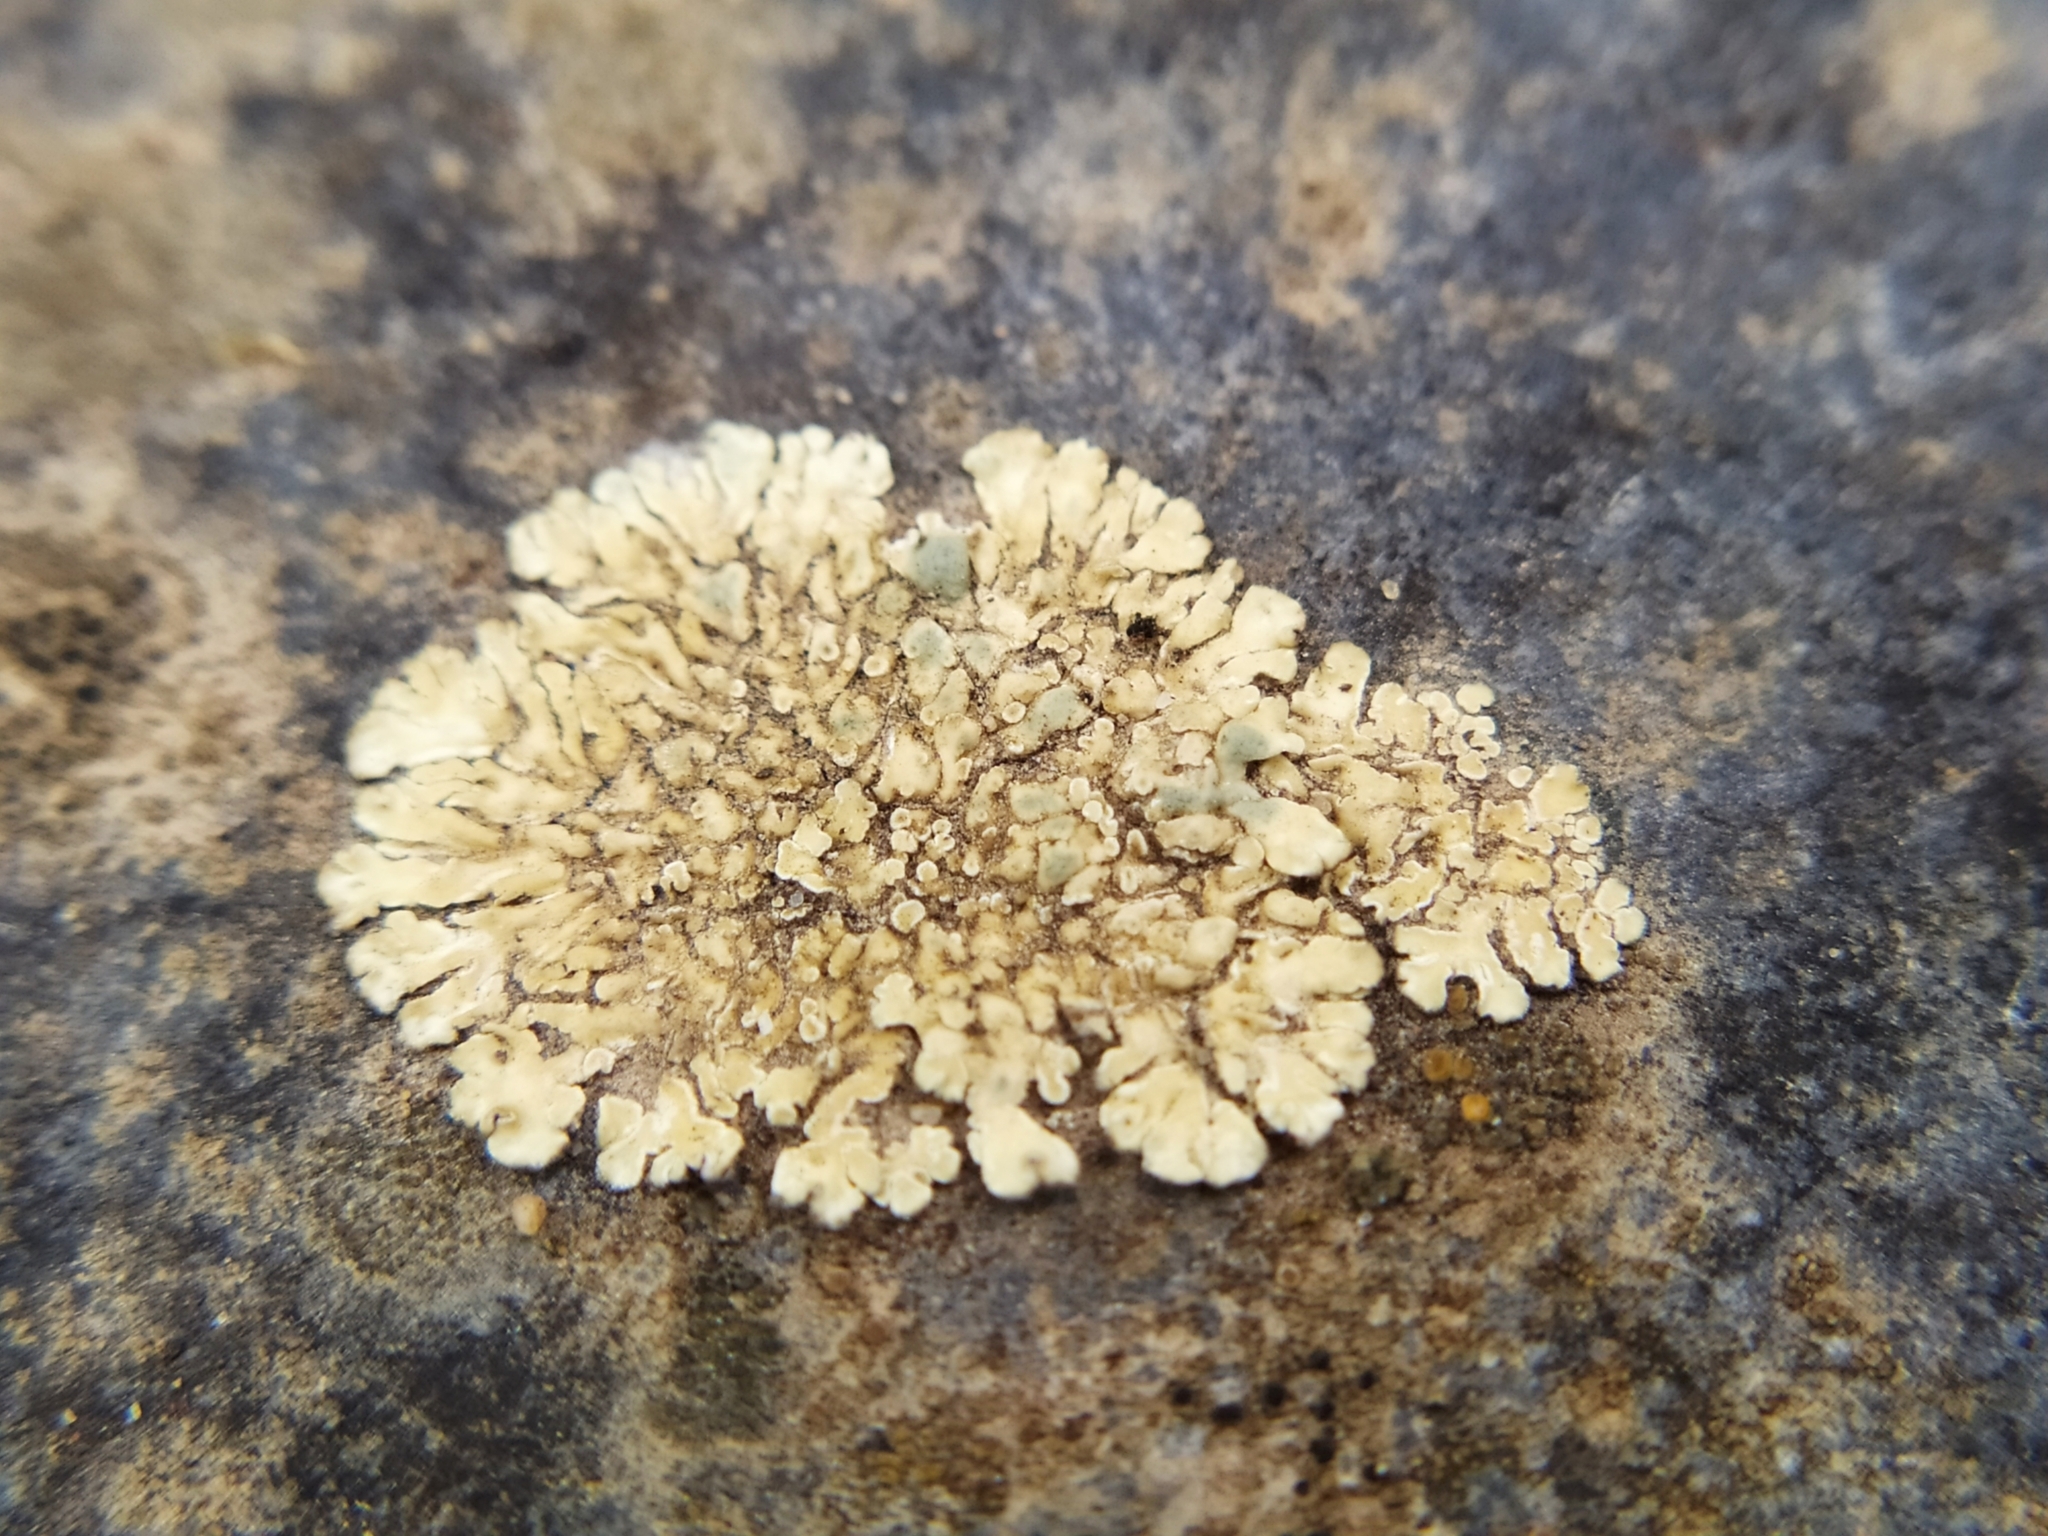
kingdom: Fungi
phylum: Ascomycota
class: Lecanoromycetes
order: Lecanorales
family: Lecanoraceae
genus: Protoparmeliopsis
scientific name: Protoparmeliopsis muralis
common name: Stonewall rim lichen
